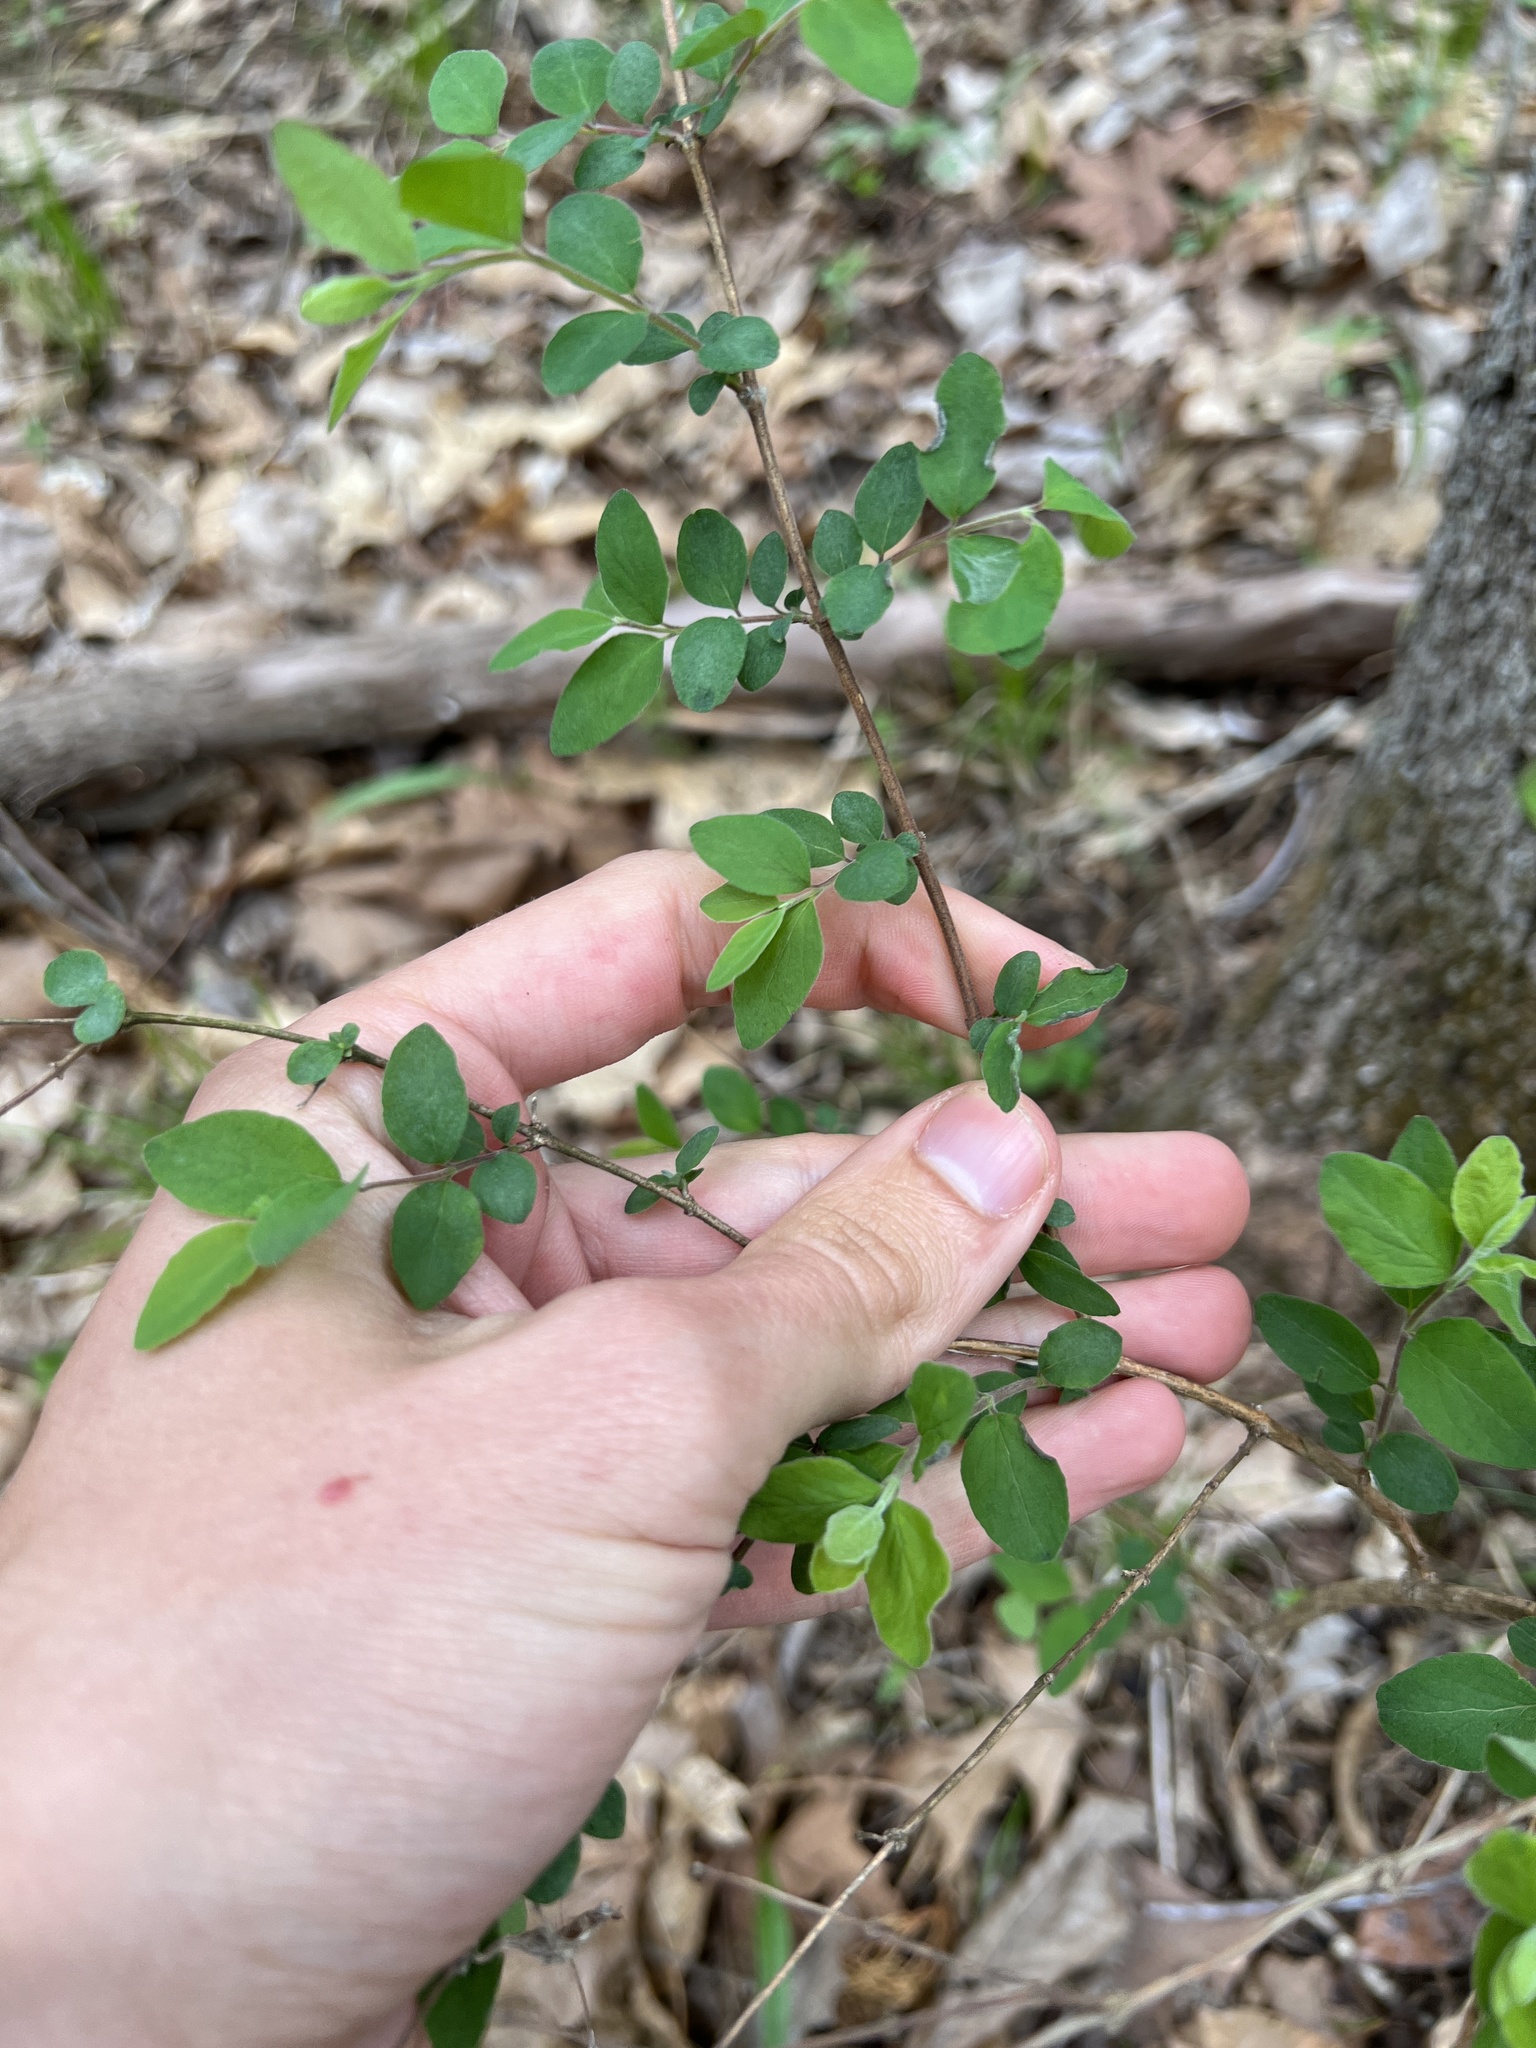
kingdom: Plantae
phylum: Tracheophyta
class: Magnoliopsida
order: Dipsacales
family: Caprifoliaceae
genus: Symphoricarpos
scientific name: Symphoricarpos orbiculatus
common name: Coralberry
